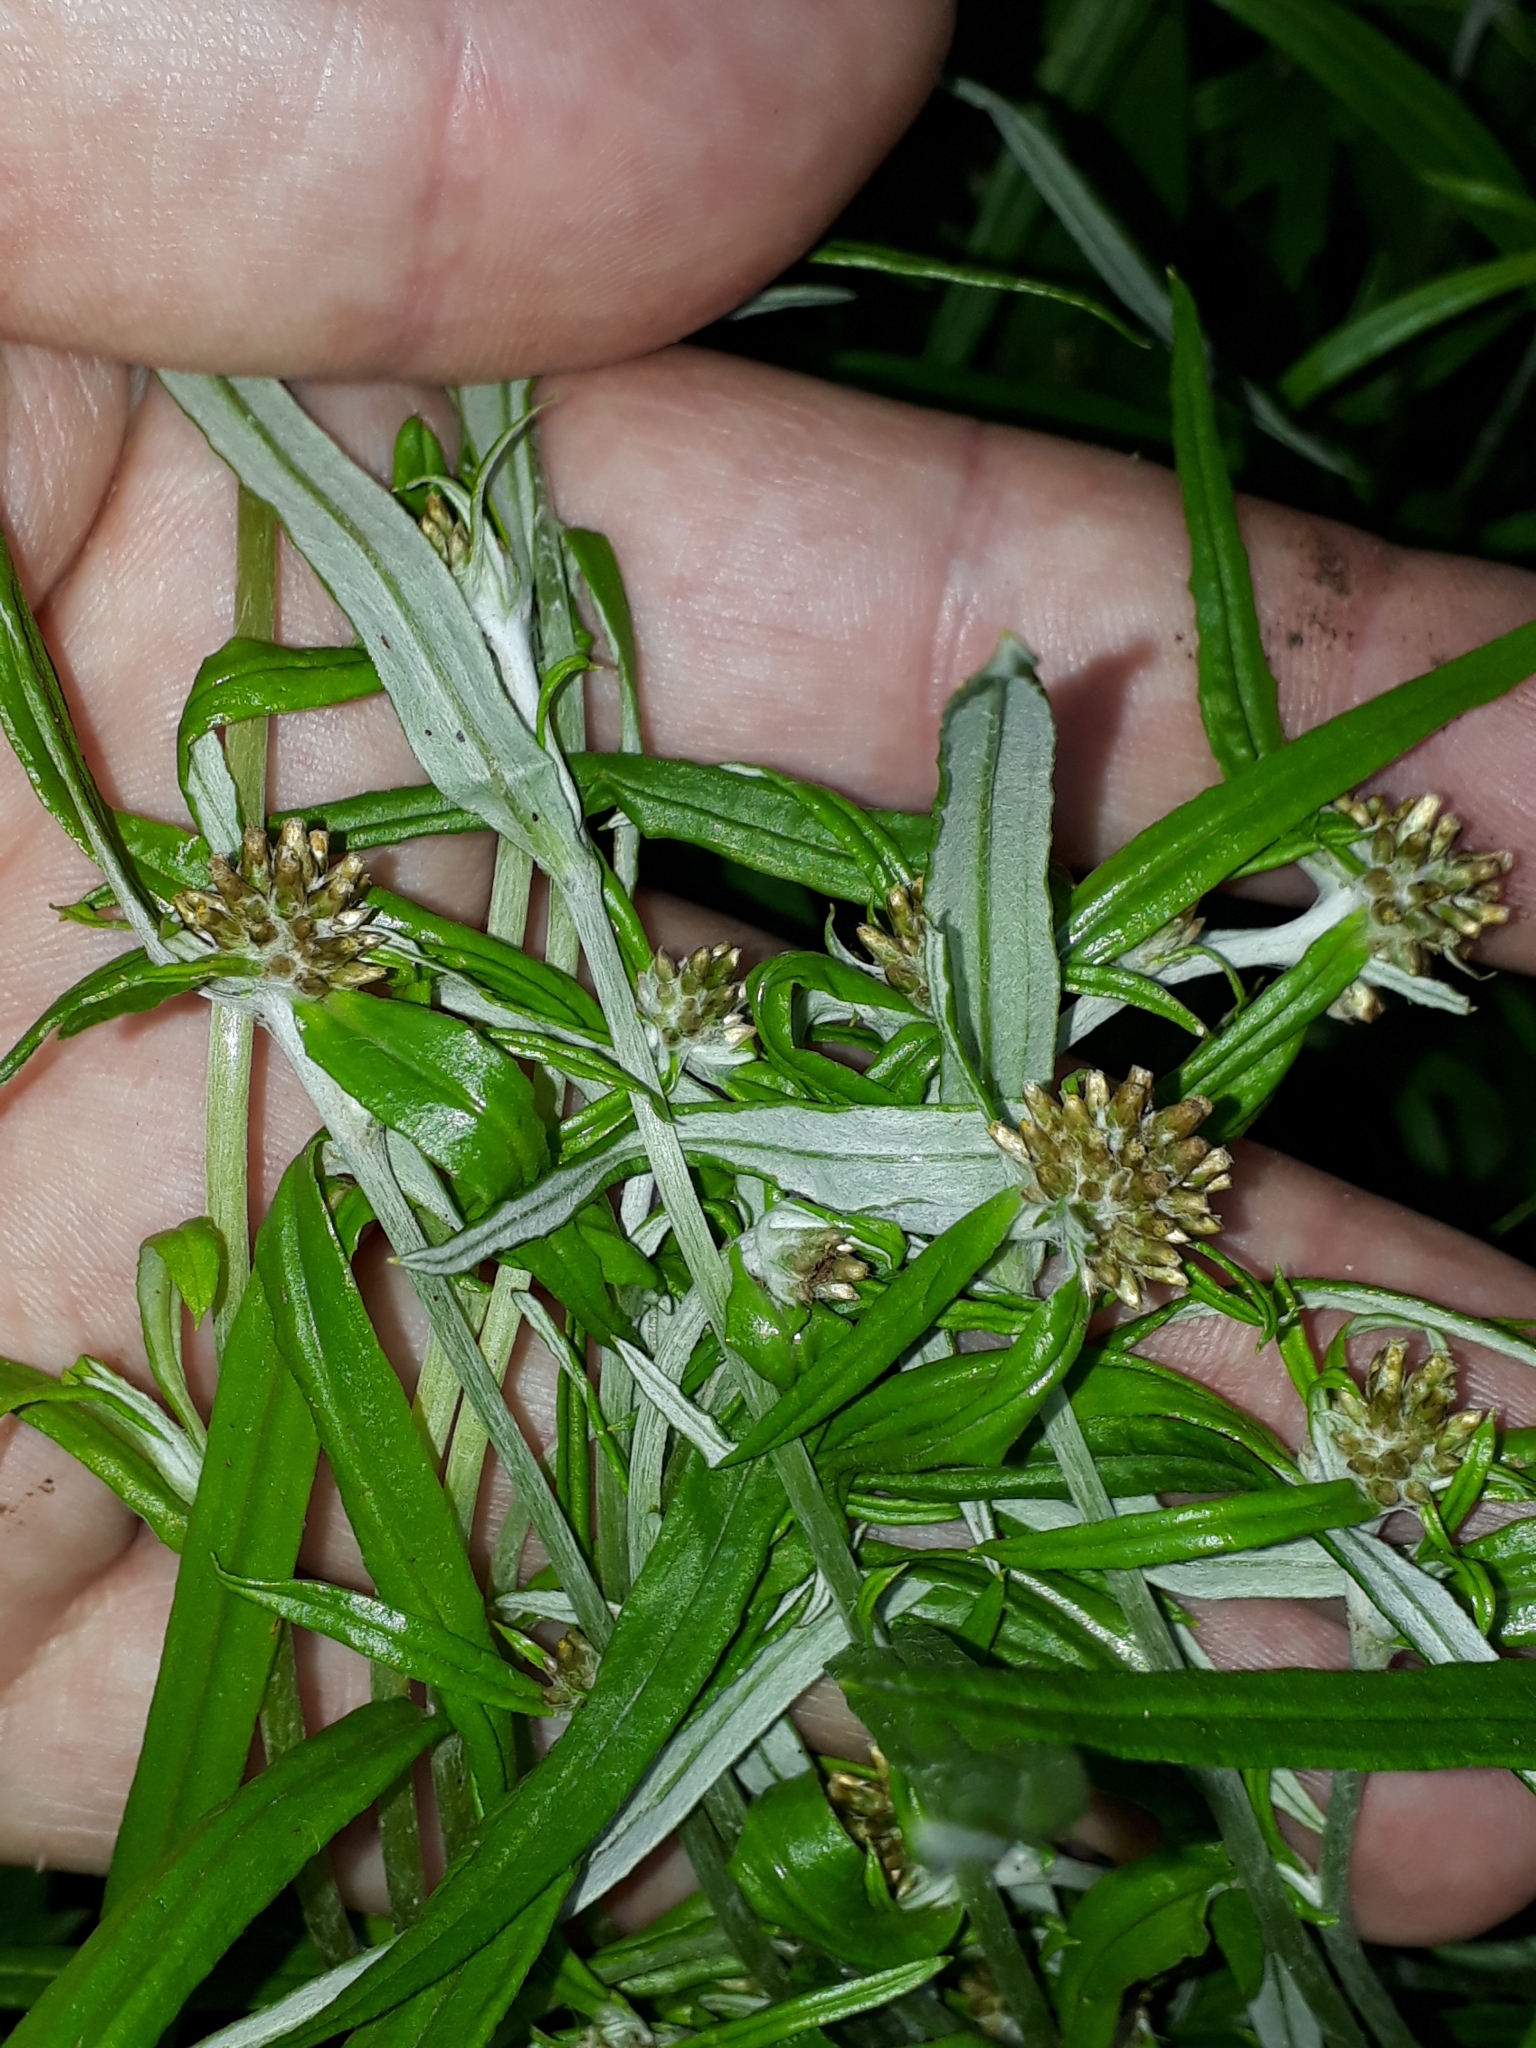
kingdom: Plantae
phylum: Tracheophyta
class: Magnoliopsida
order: Asterales
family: Asteraceae
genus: Euchiton
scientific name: Euchiton sphaericus
